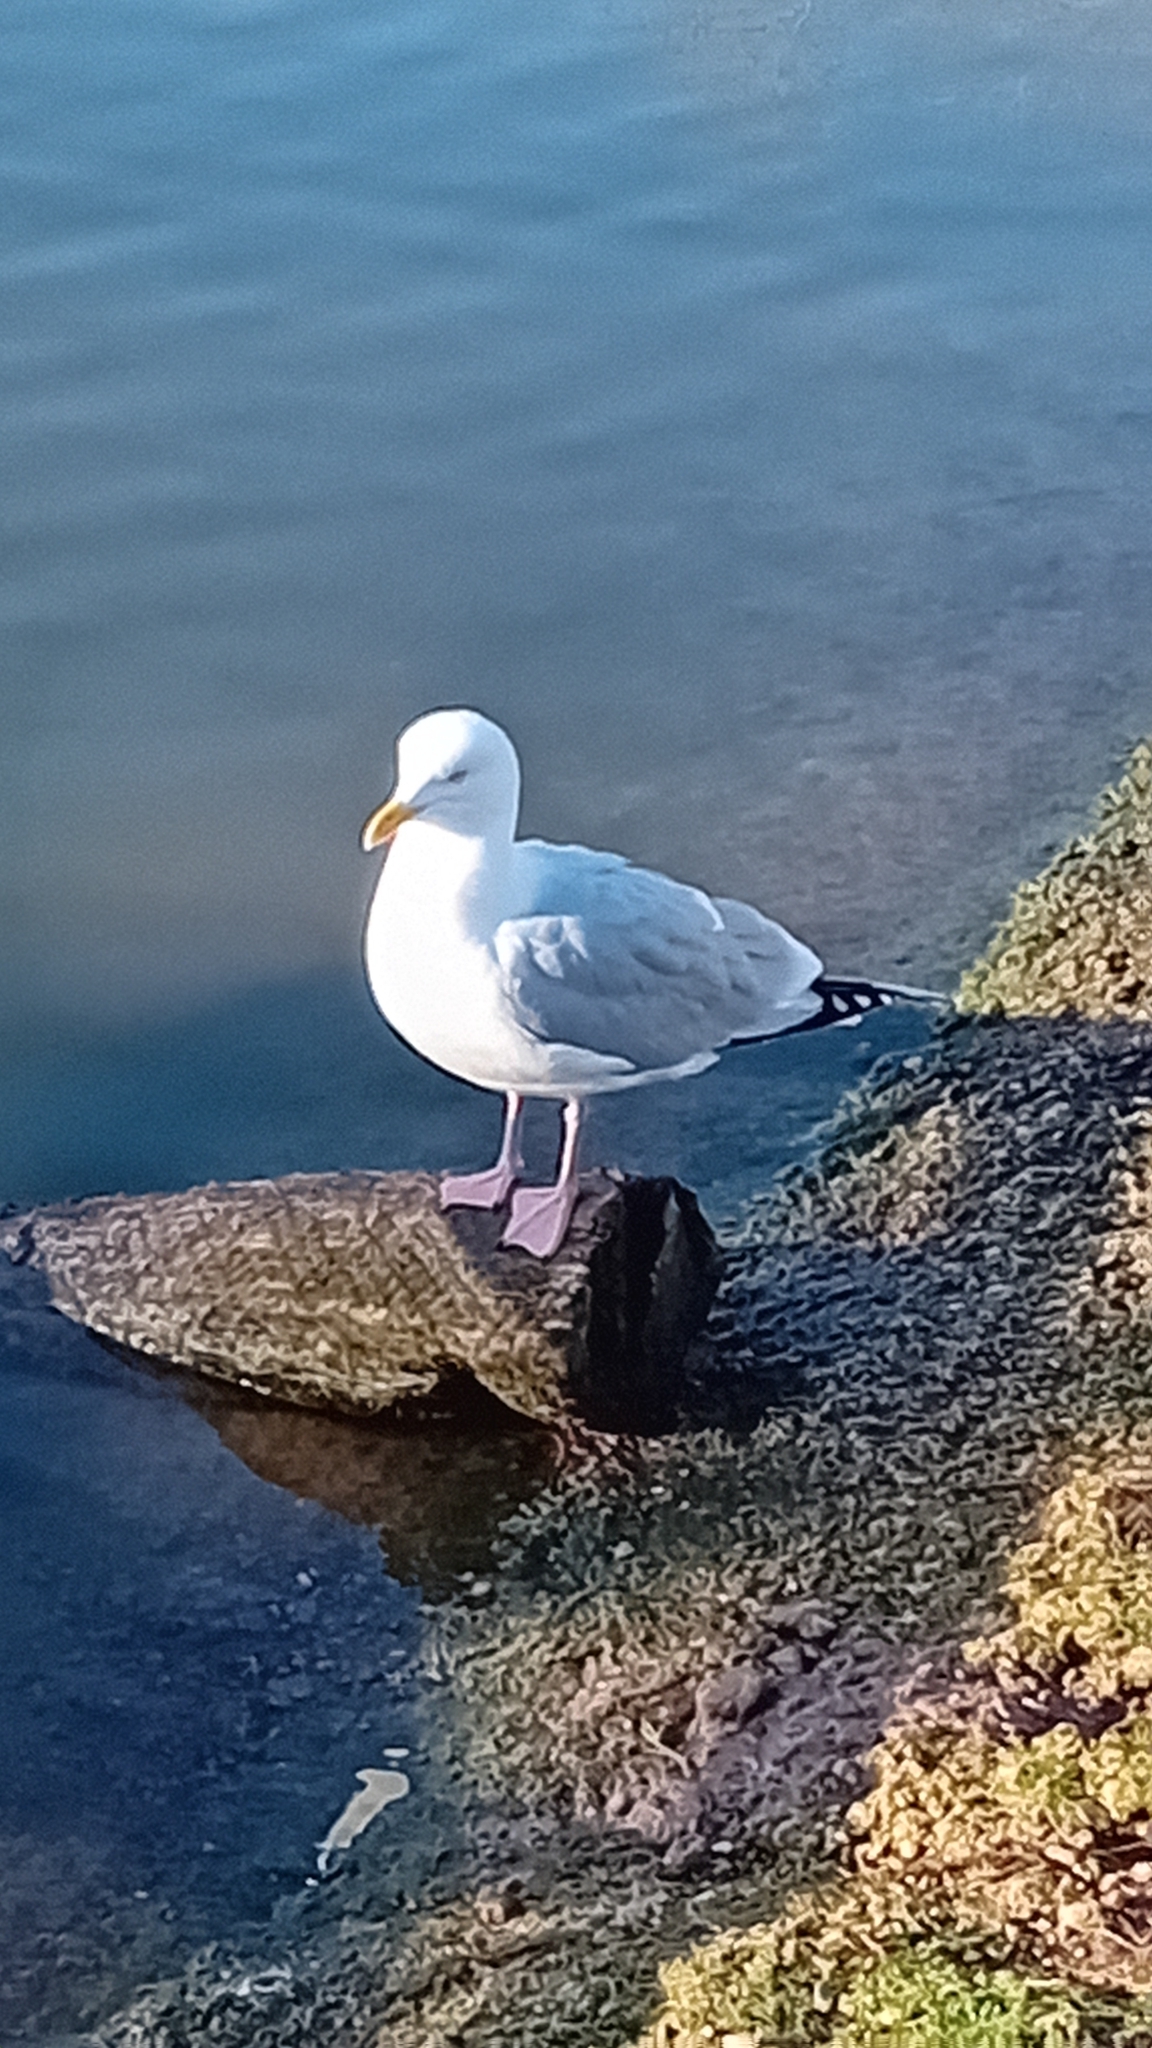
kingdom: Animalia
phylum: Chordata
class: Aves
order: Charadriiformes
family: Laridae
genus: Larus
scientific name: Larus argentatus
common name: Herring gull
